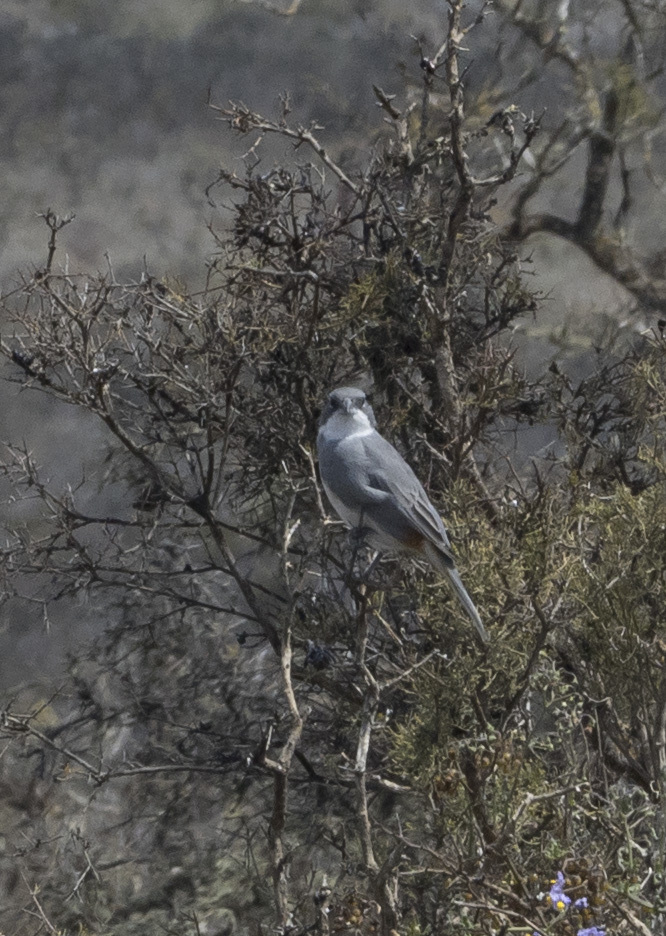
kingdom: Animalia
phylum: Chordata
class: Aves
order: Passeriformes
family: Thraupidae
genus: Diuca
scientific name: Diuca diuca
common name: Common diuca finch
